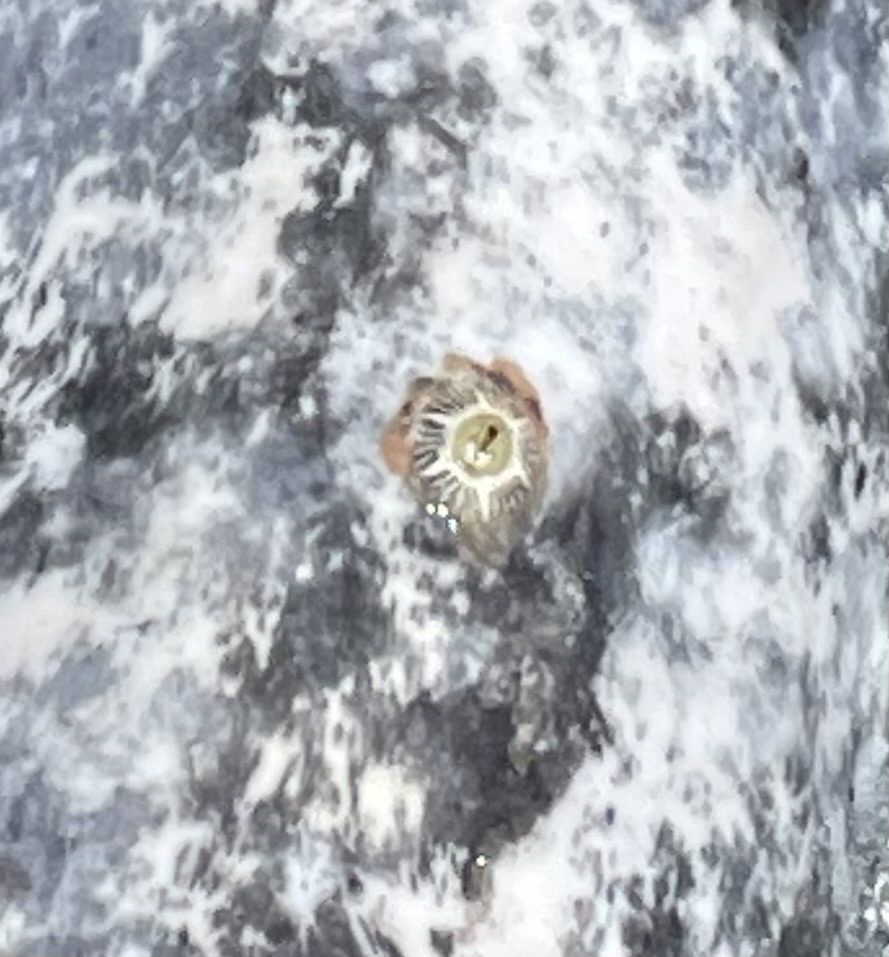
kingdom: Animalia
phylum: Arthropoda
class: Maxillopoda
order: Sessilia
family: Coronulidae
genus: Cryptolepas
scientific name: Cryptolepas rhachianecti
